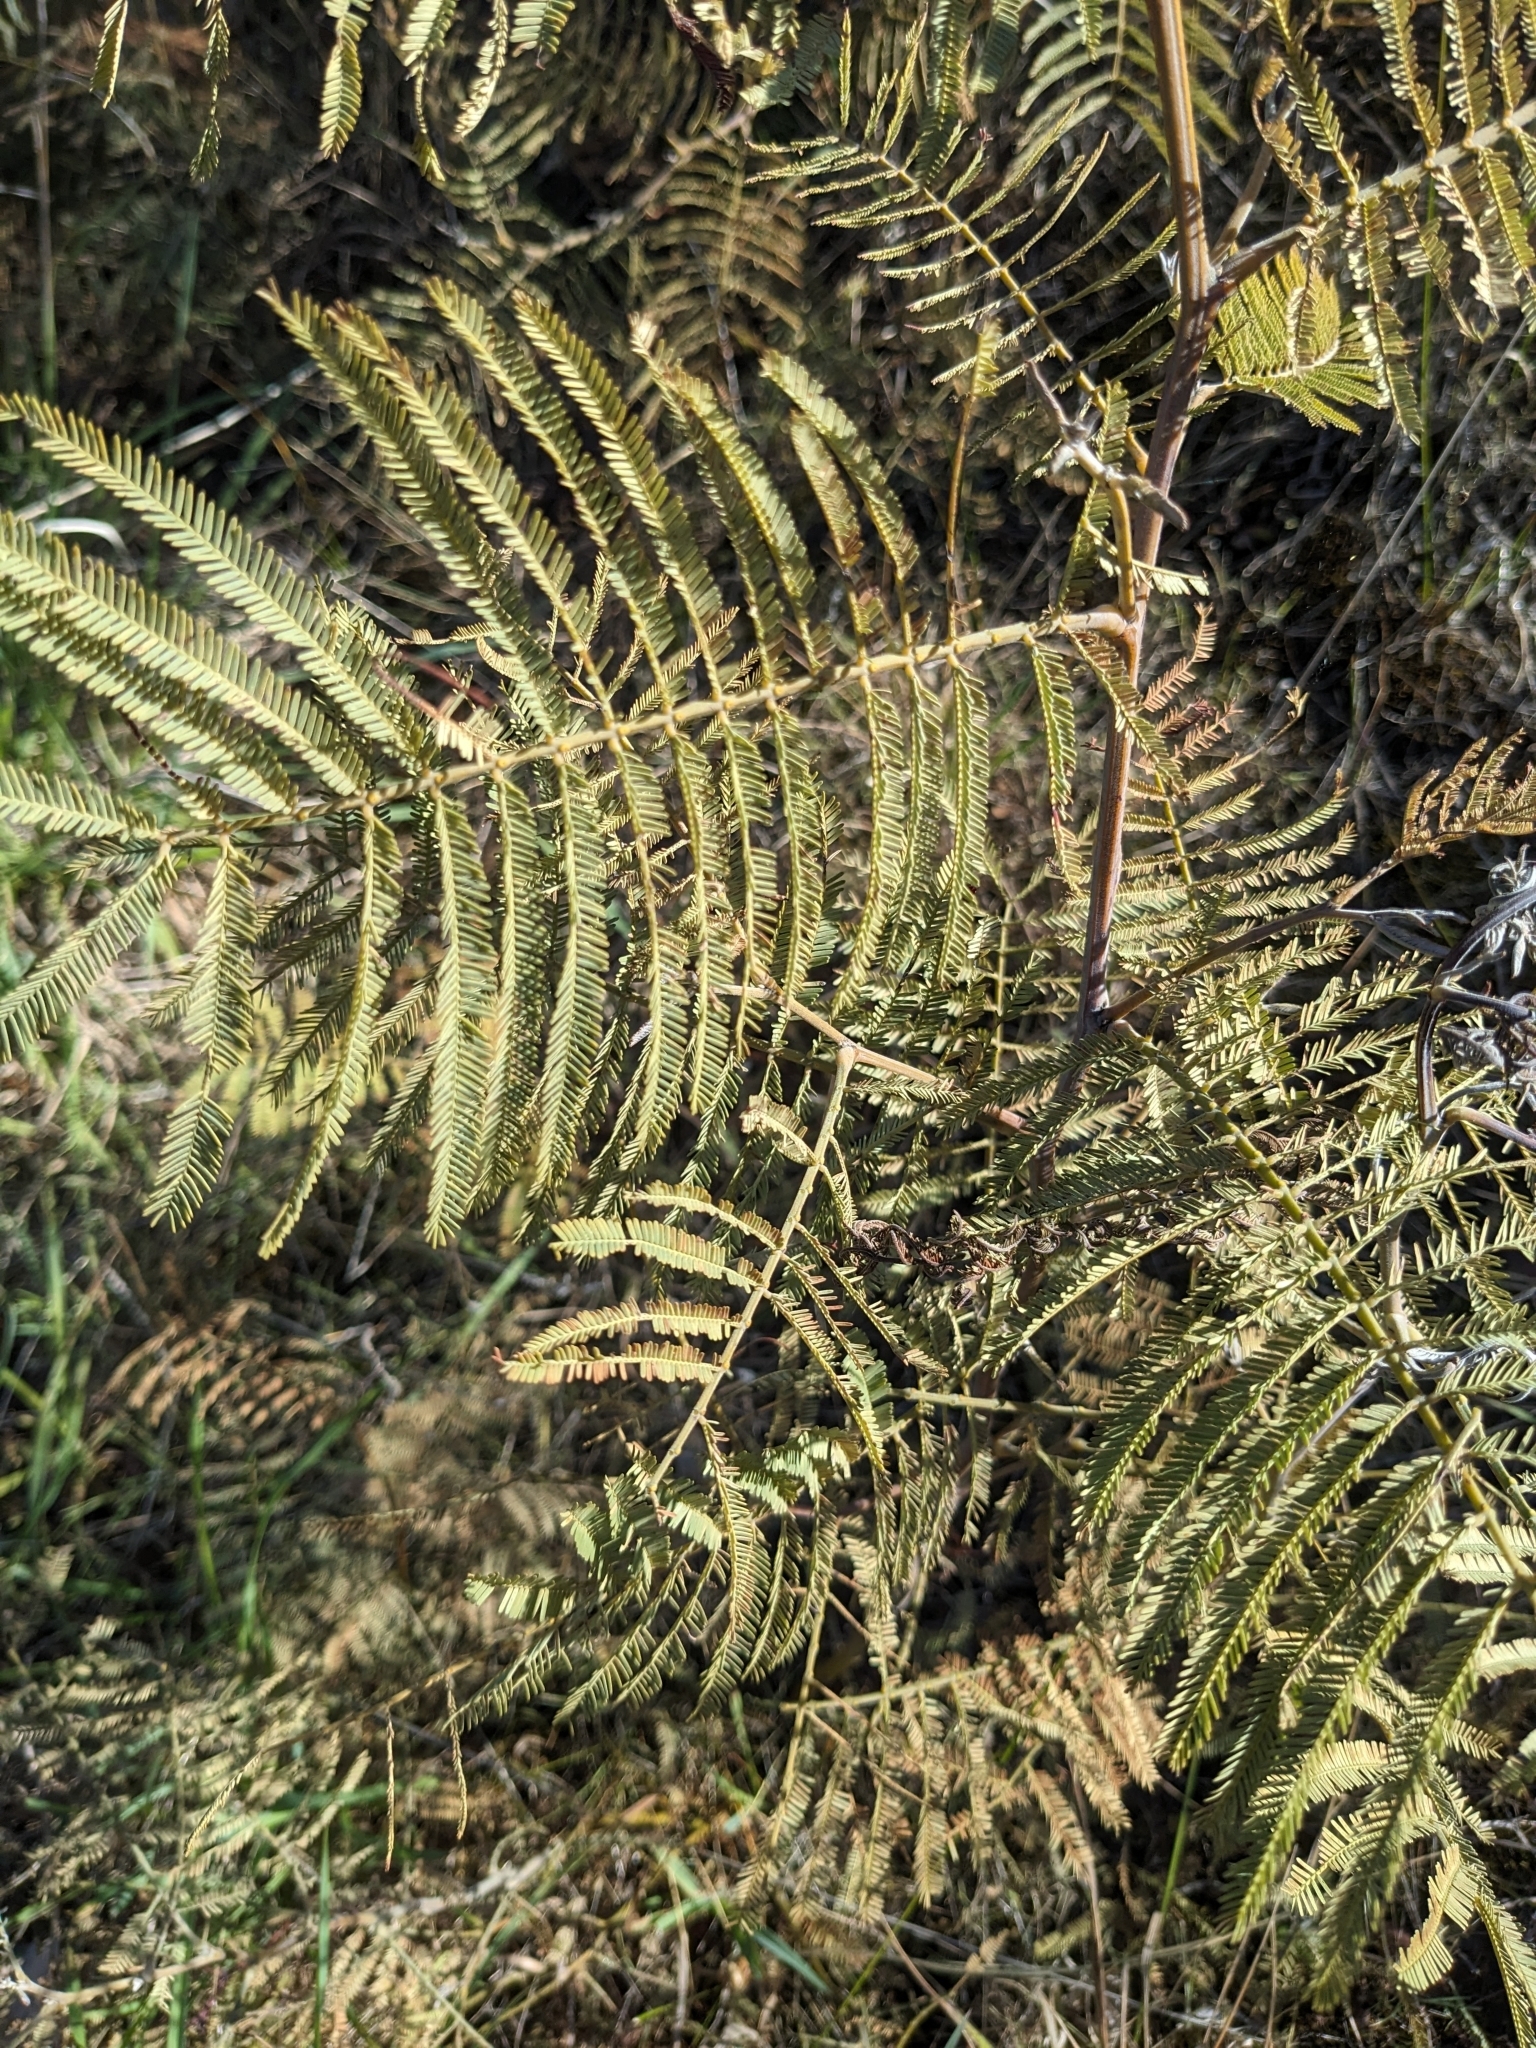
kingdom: Plantae
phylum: Tracheophyta
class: Magnoliopsida
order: Fabales
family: Fabaceae
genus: Acacia
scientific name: Acacia dealbata
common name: Silver wattle
